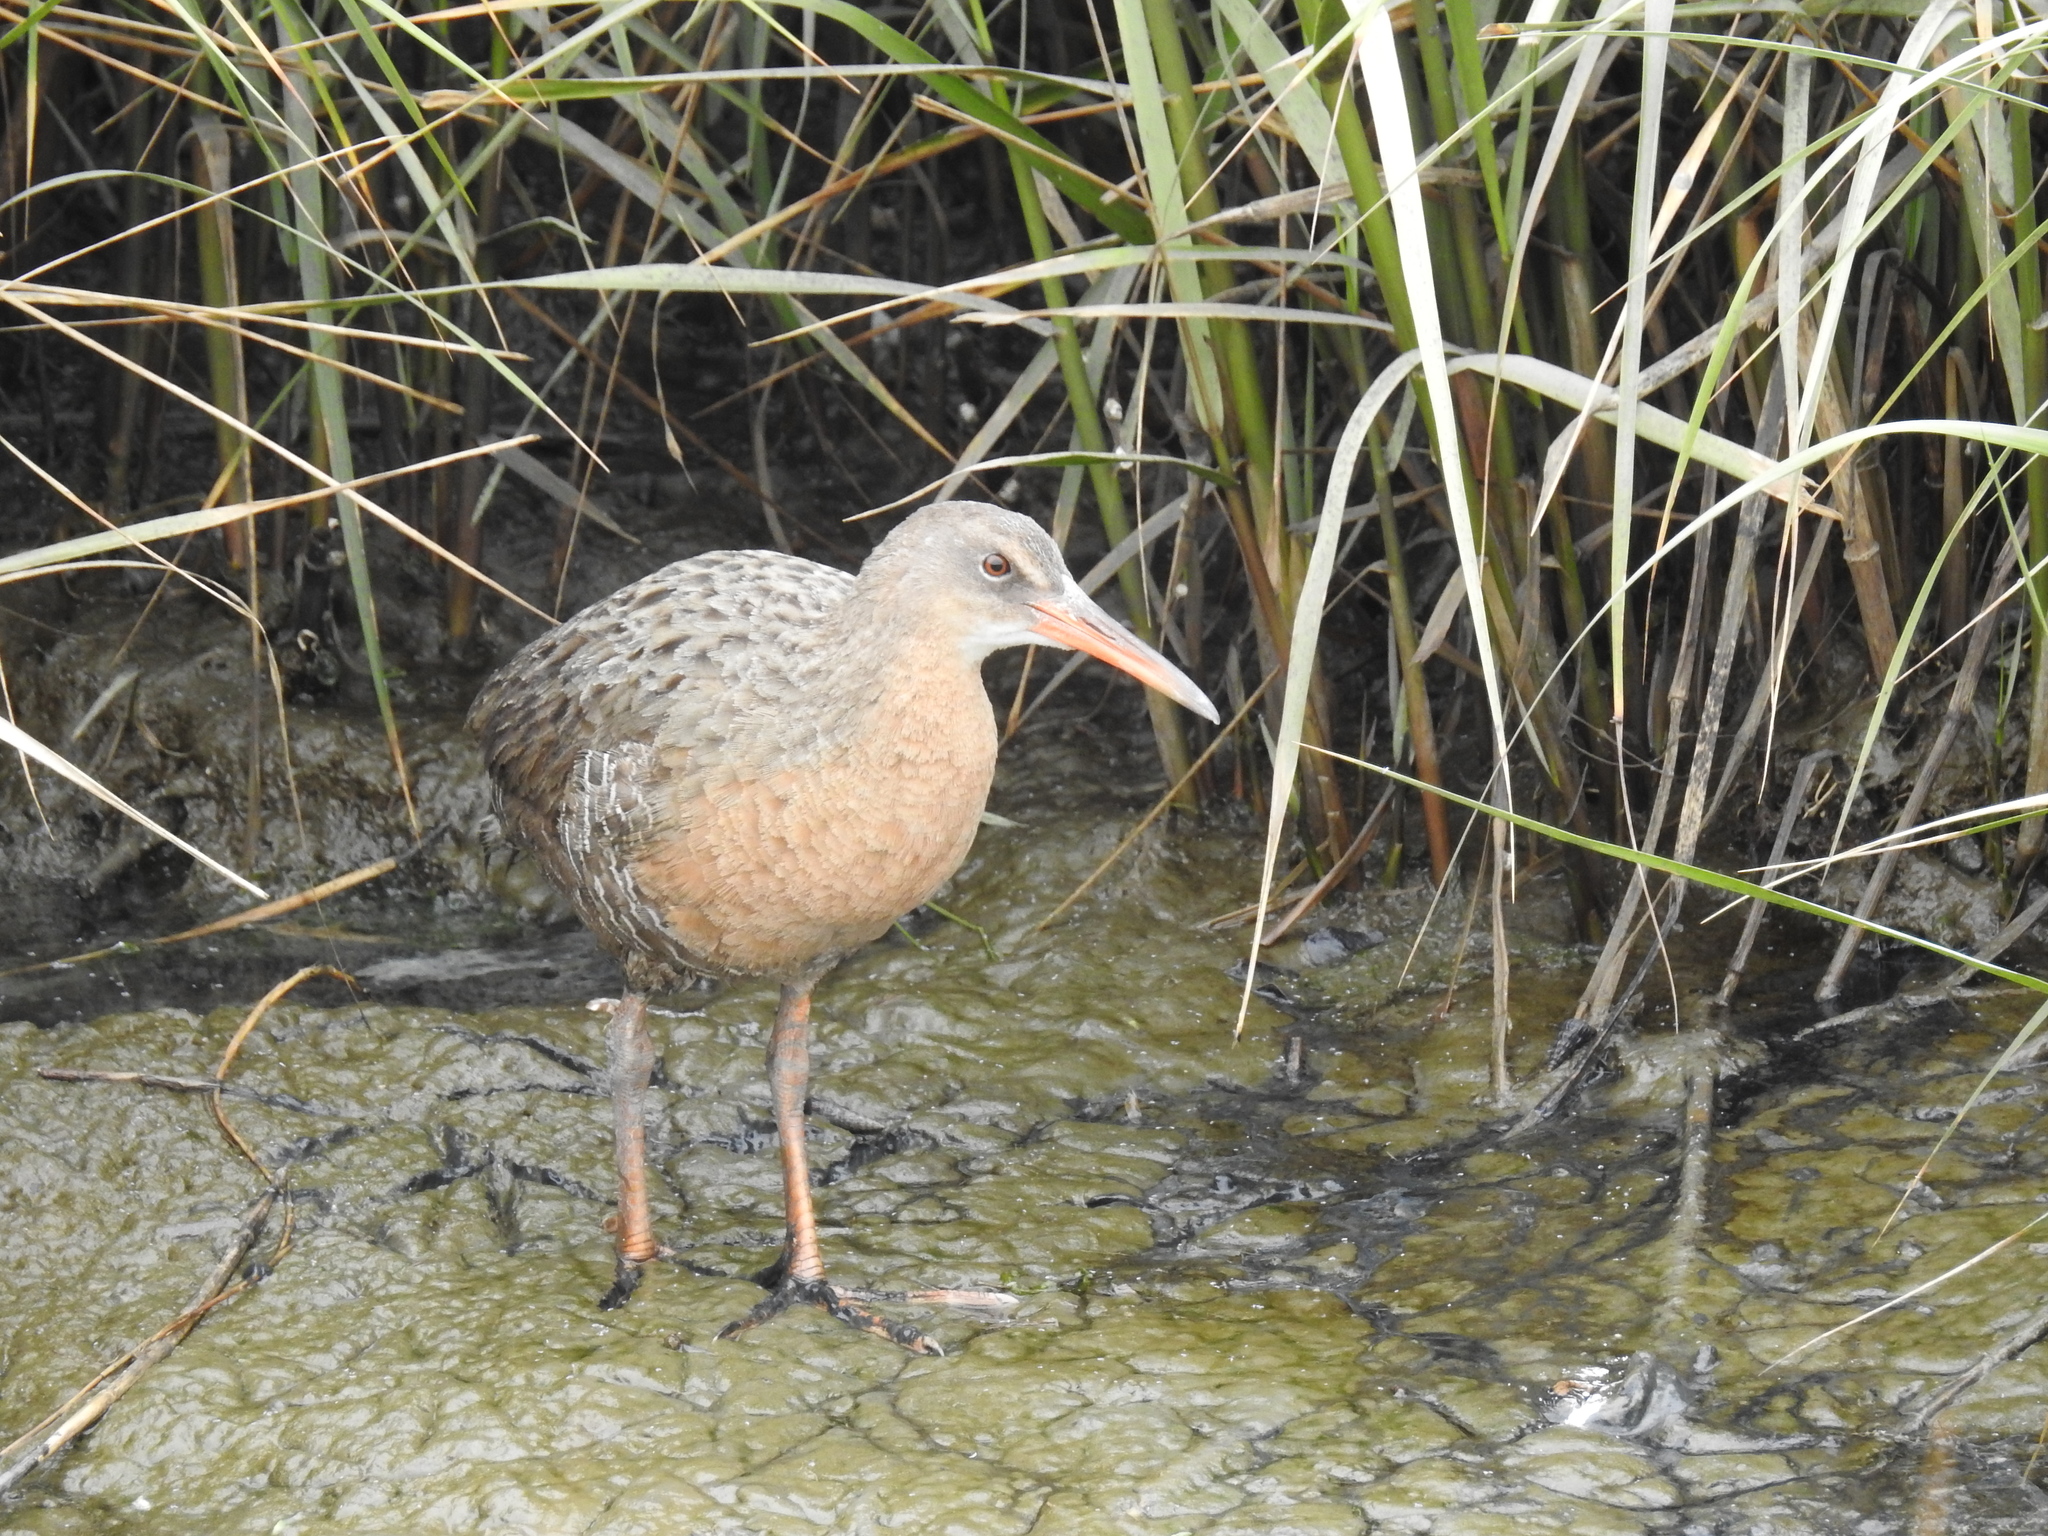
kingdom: Animalia
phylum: Chordata
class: Aves
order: Gruiformes
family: Rallidae
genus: Rallus
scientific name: Rallus obsoletus
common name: Ridgway's rail
